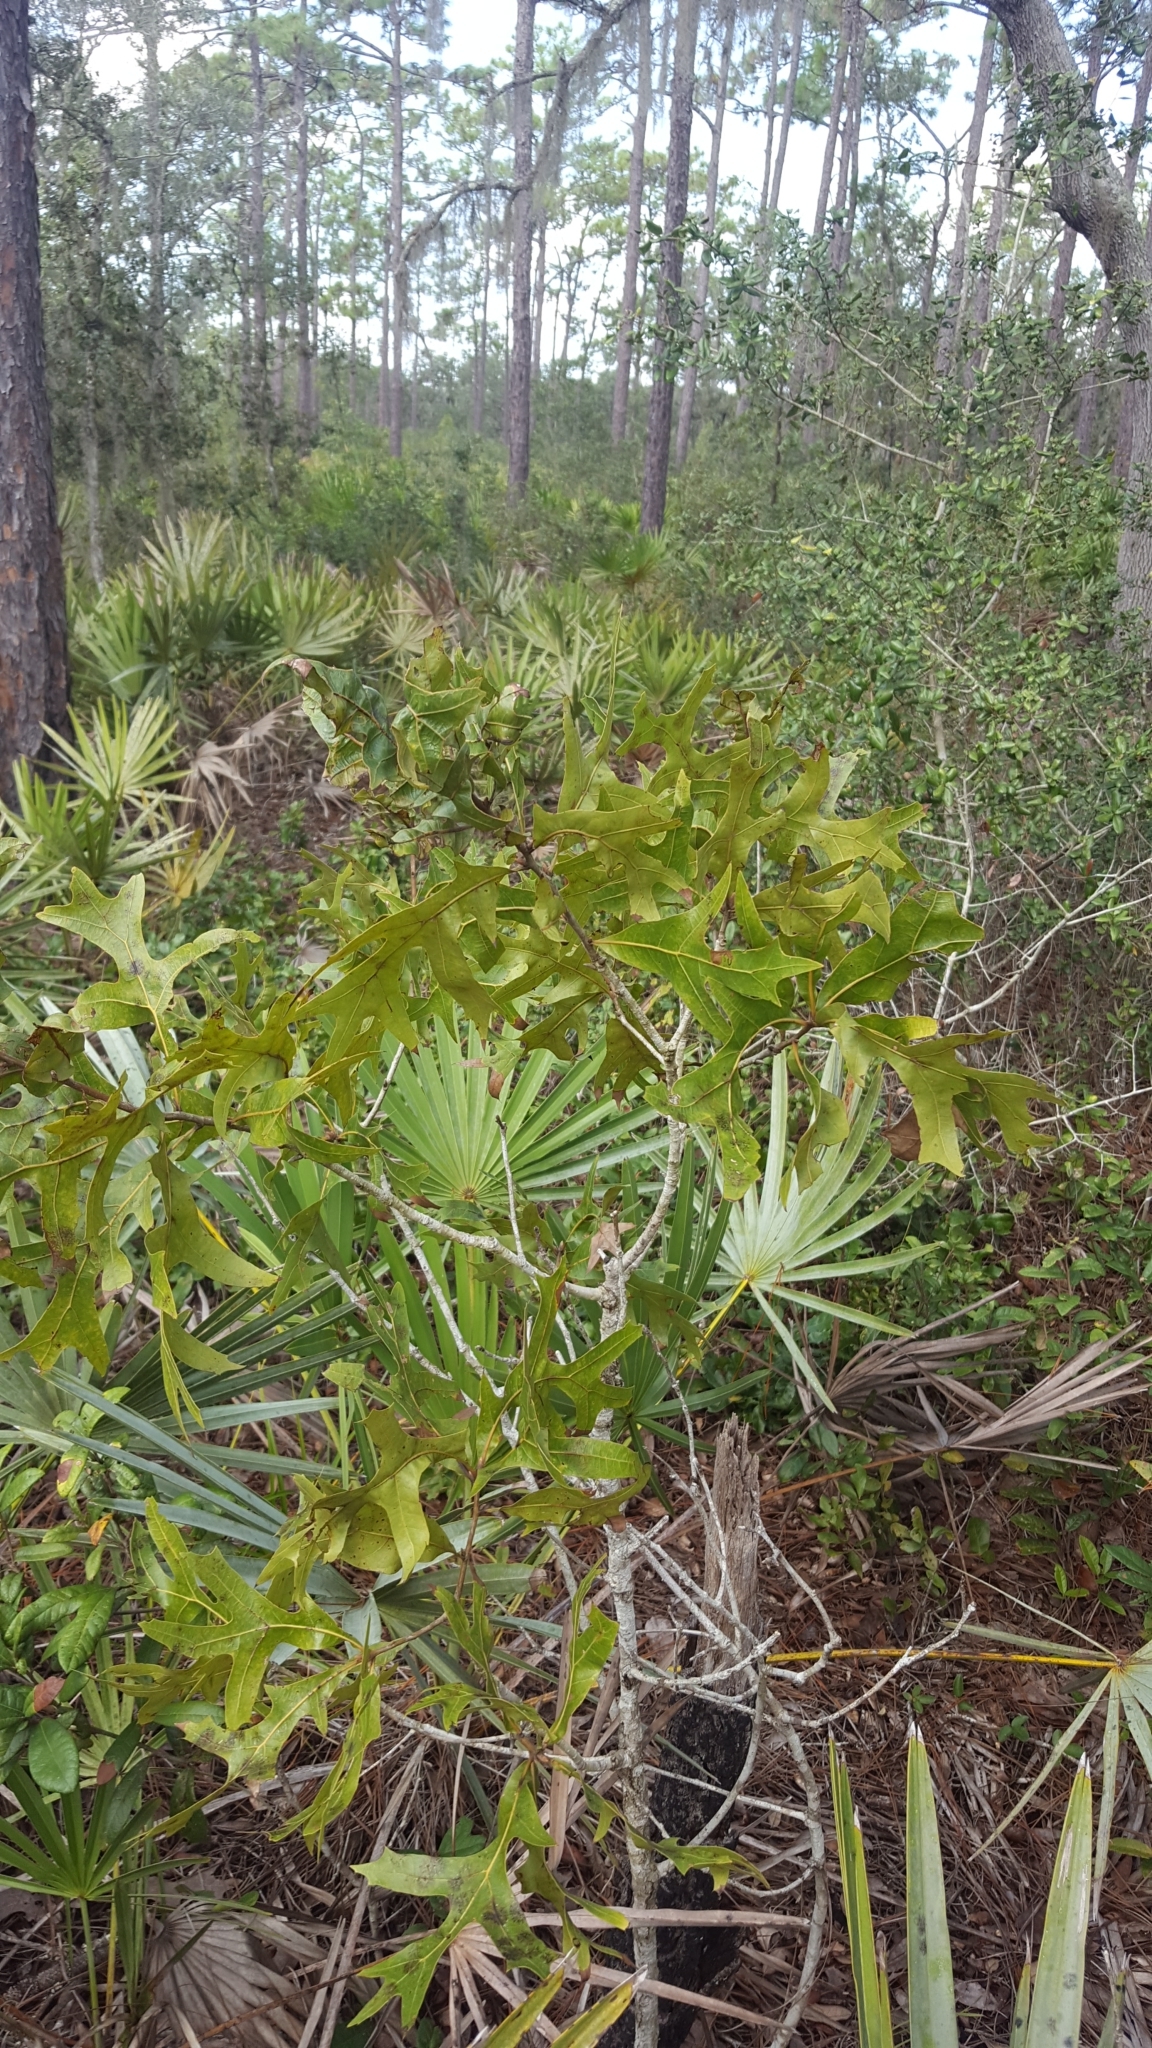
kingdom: Plantae
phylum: Tracheophyta
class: Magnoliopsida
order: Fagales
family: Fagaceae
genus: Quercus
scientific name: Quercus laevis
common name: Turkey oak
